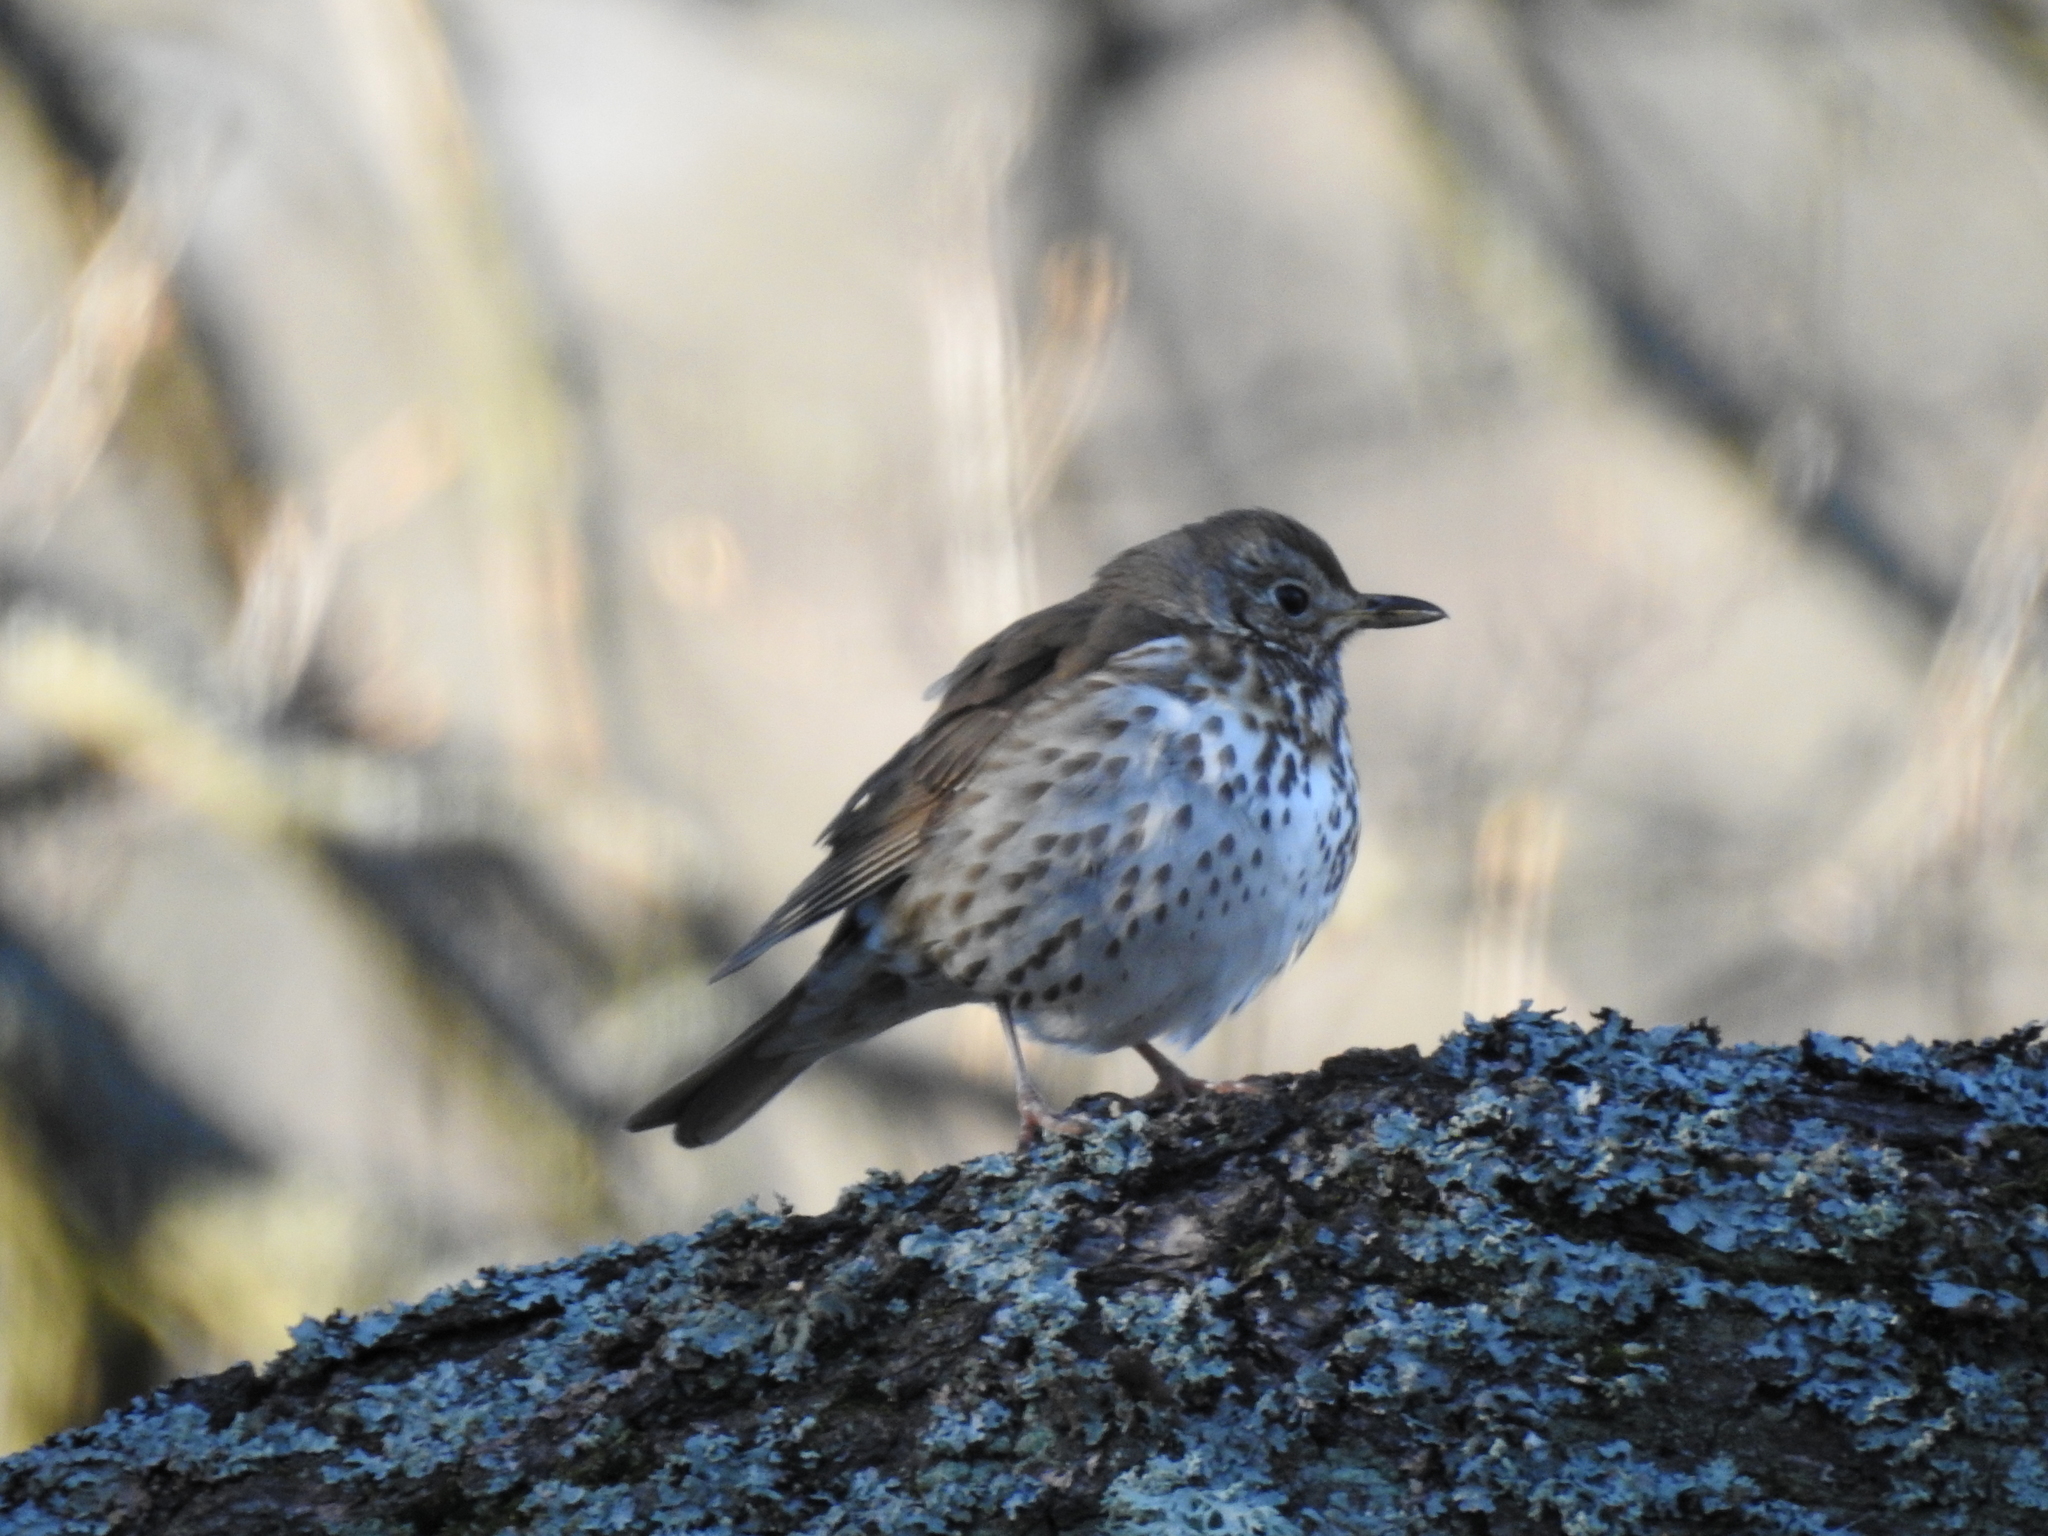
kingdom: Animalia
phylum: Chordata
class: Aves
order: Passeriformes
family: Turdidae
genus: Turdus
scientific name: Turdus philomelos
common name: Song thrush
